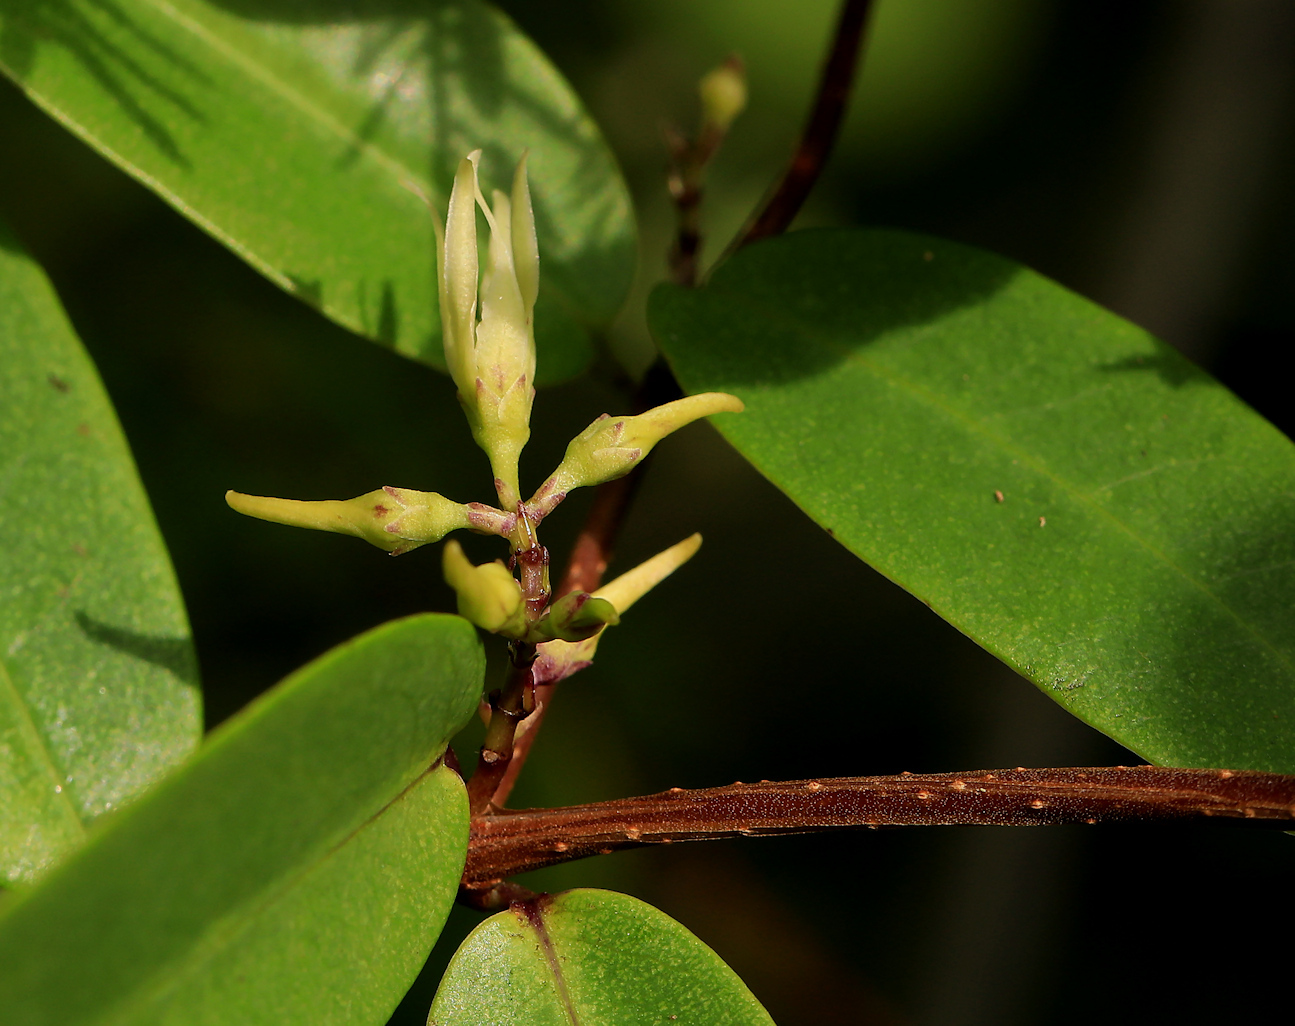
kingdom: Plantae
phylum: Tracheophyta
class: Magnoliopsida
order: Gentianales
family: Apocynaceae
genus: Cryptolepis
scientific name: Cryptolepis obtusa
